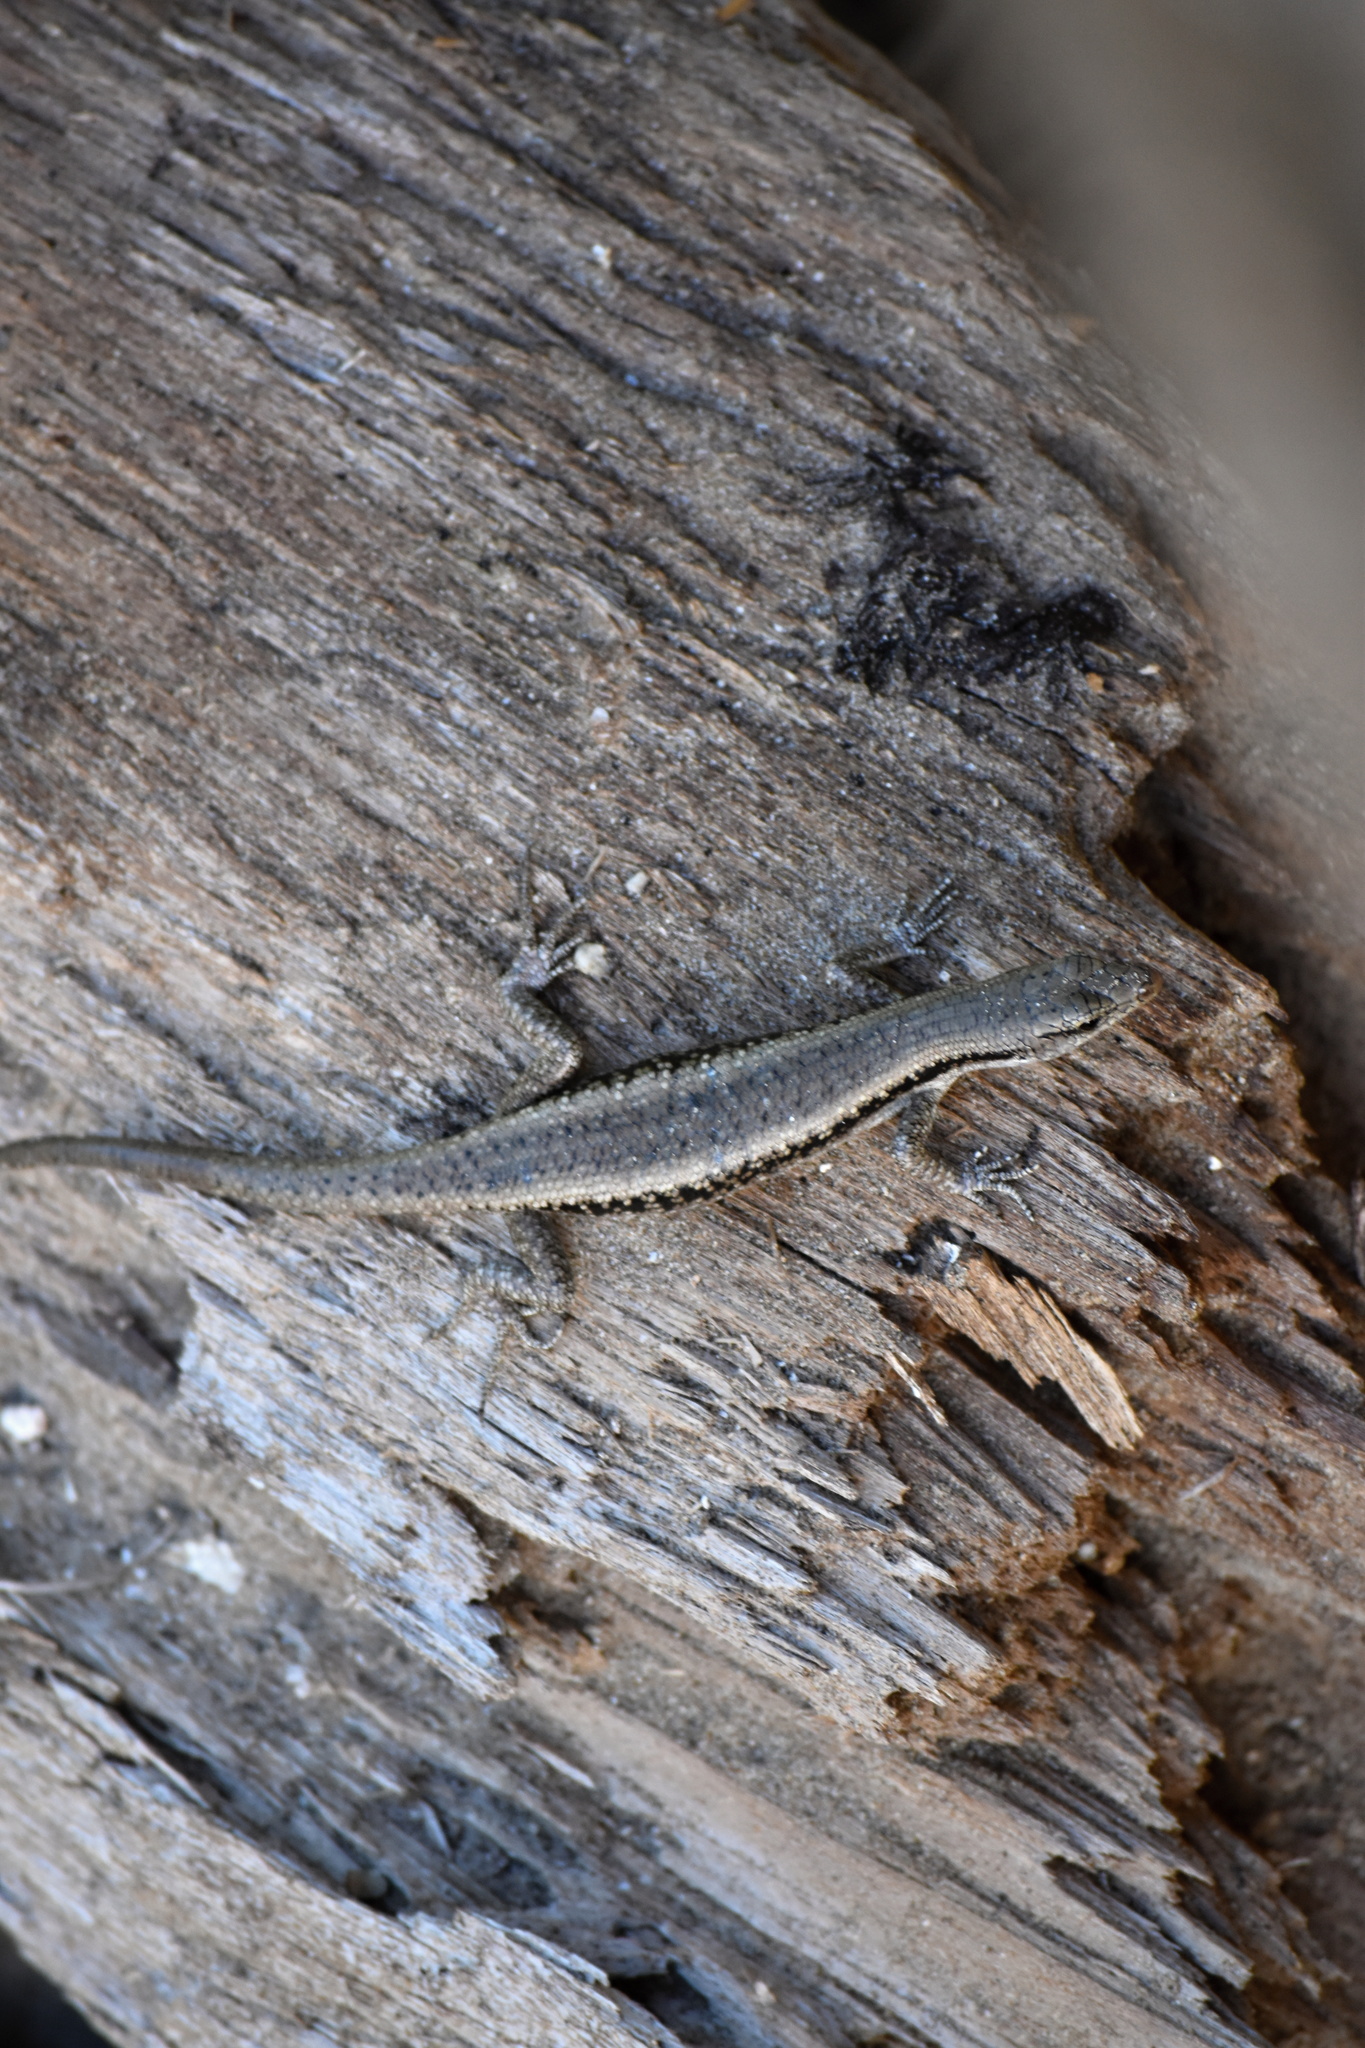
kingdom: Animalia
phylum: Chordata
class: Squamata
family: Scincidae
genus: Emoia
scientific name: Emoia atrocostata
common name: Littoral skink
